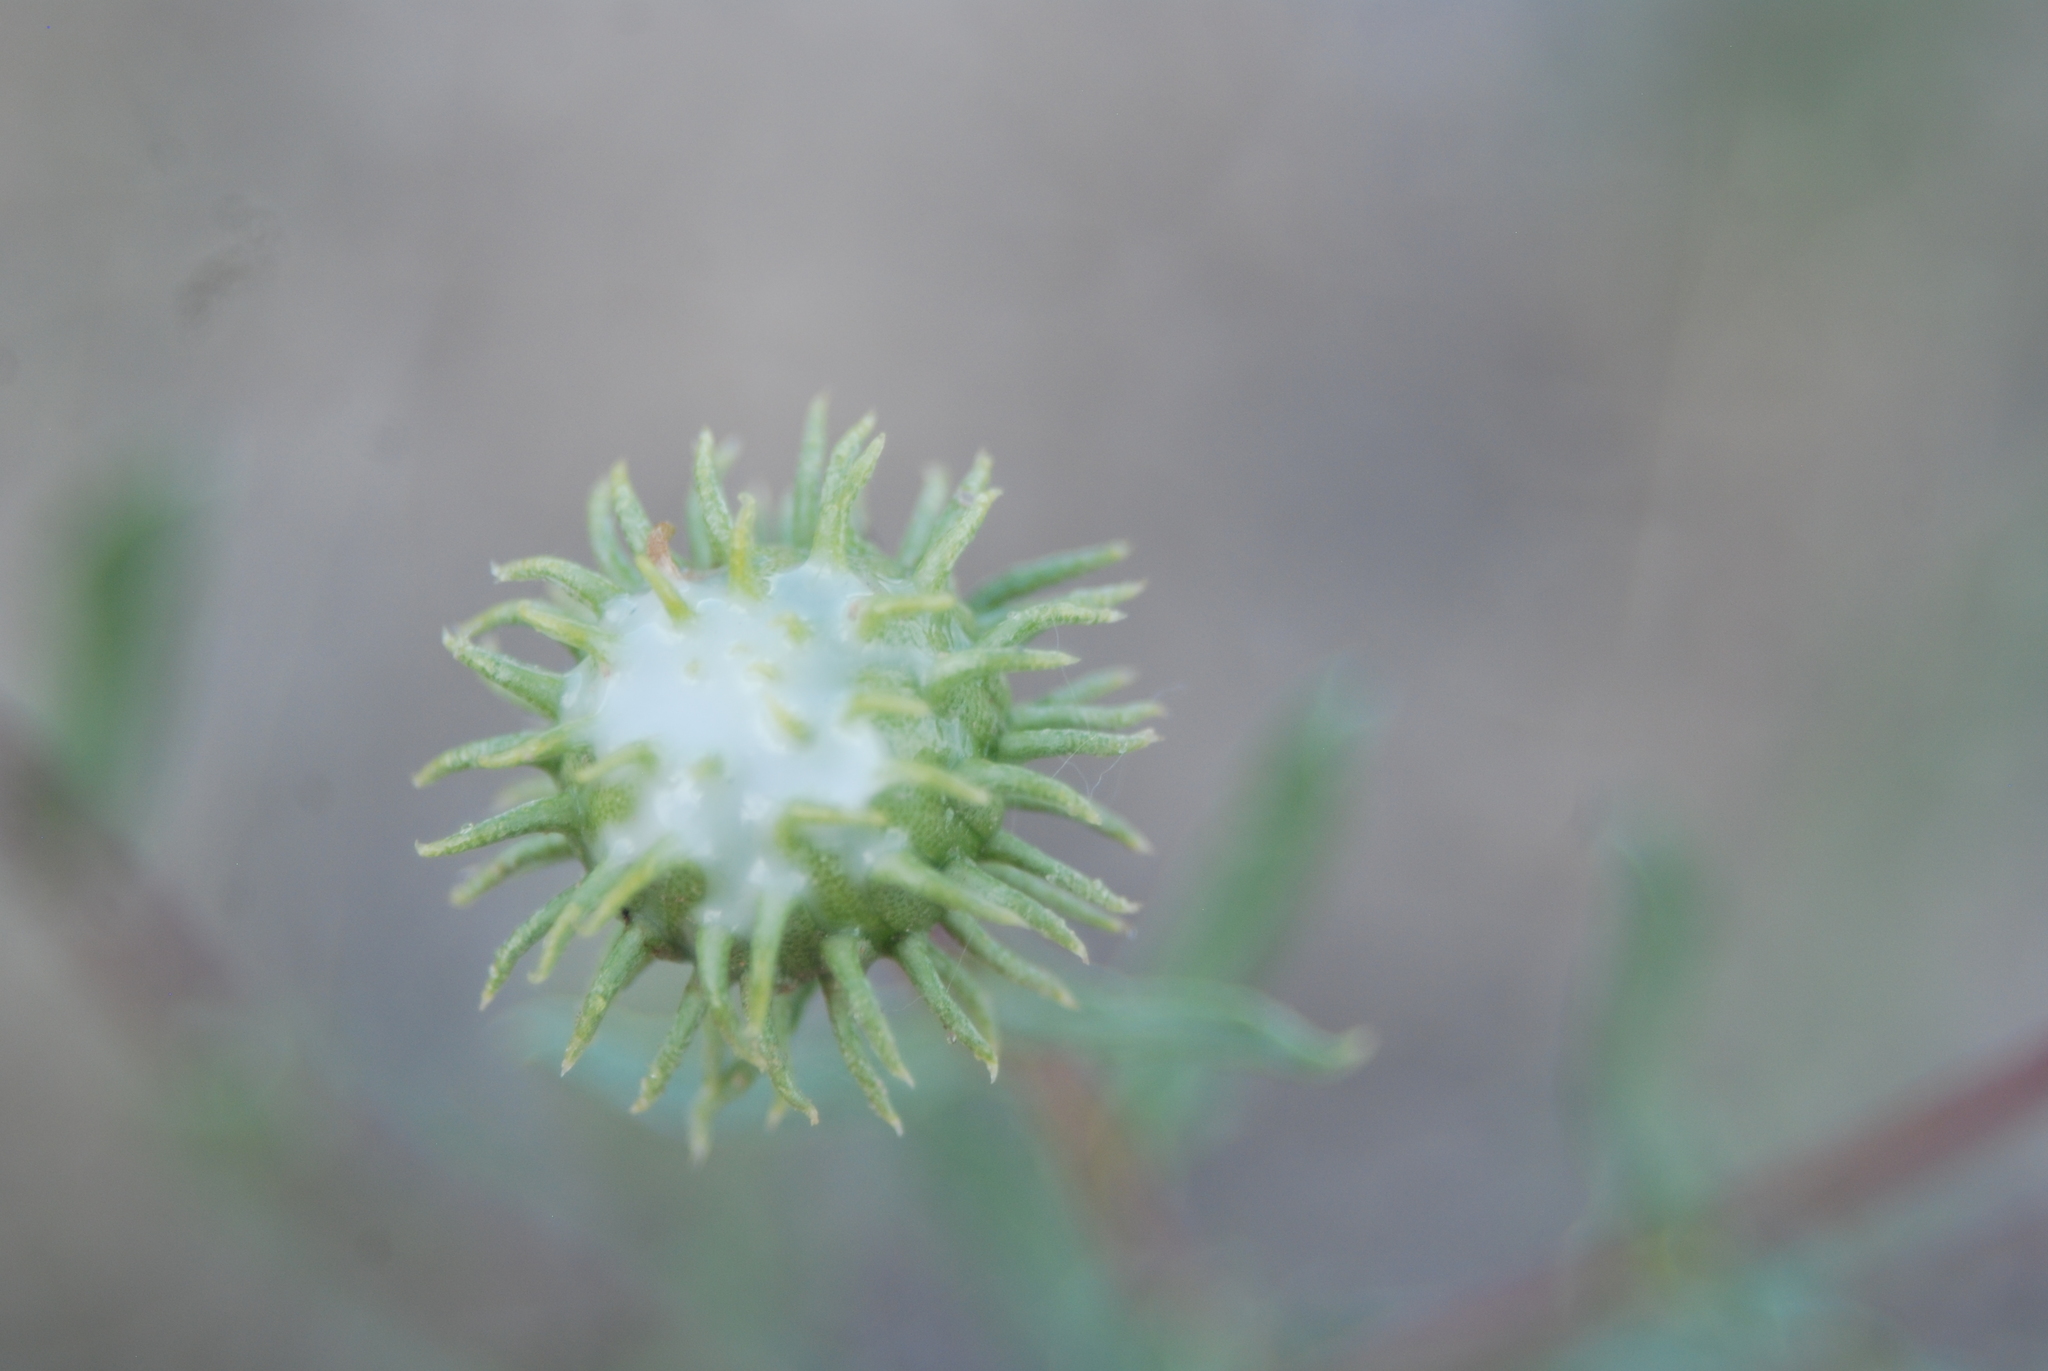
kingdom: Plantae
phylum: Tracheophyta
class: Magnoliopsida
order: Asterales
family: Asteraceae
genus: Grindelia
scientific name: Grindelia nuda
